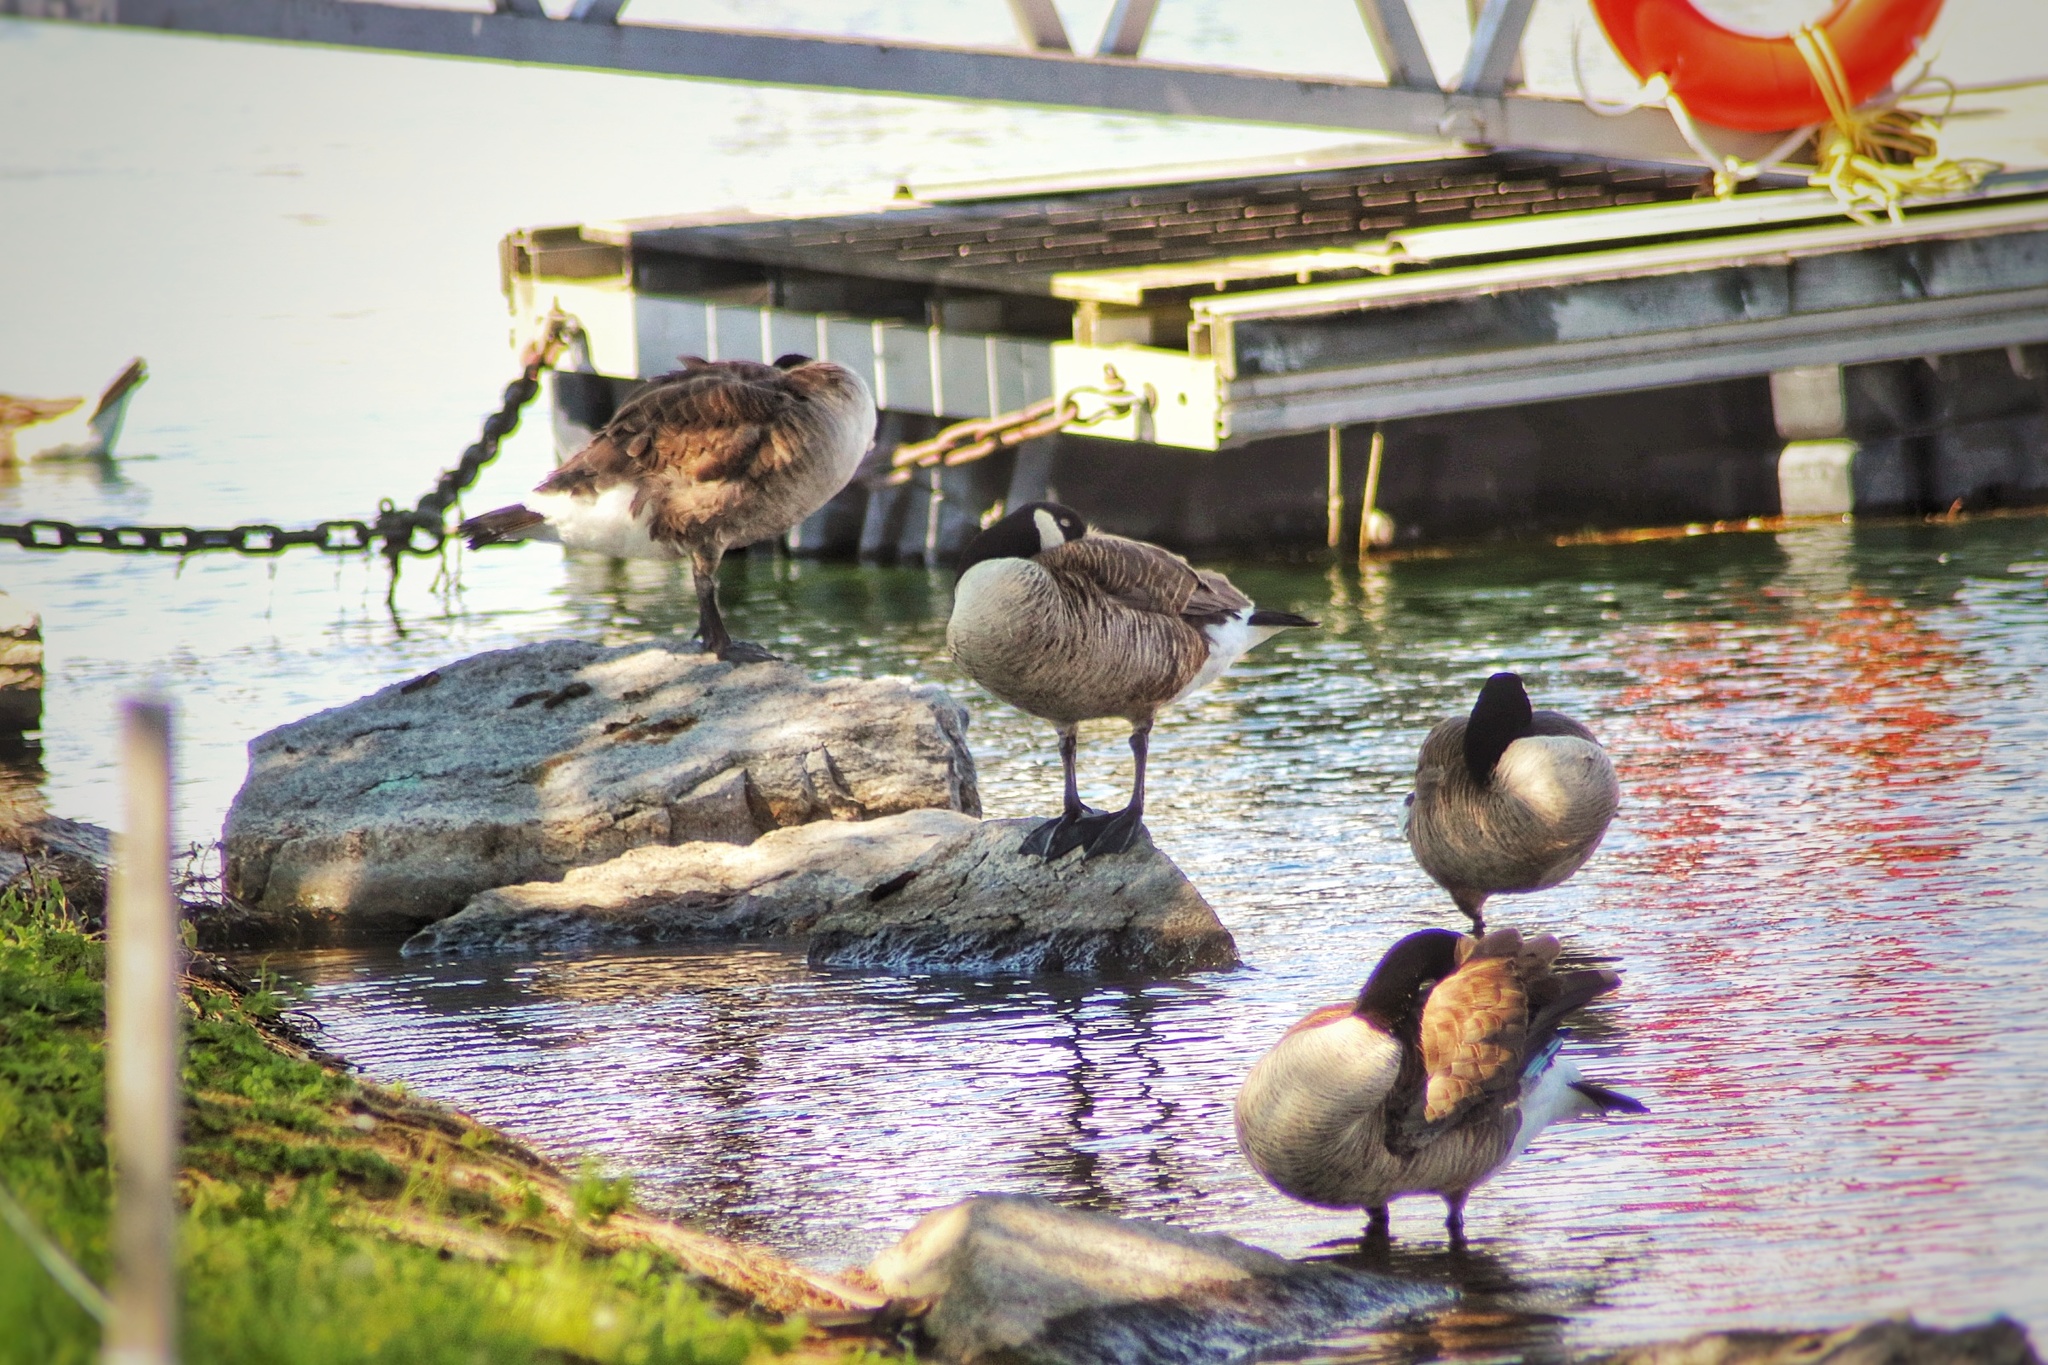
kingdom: Animalia
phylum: Chordata
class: Aves
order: Anseriformes
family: Anatidae
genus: Branta
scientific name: Branta canadensis
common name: Canada goose
